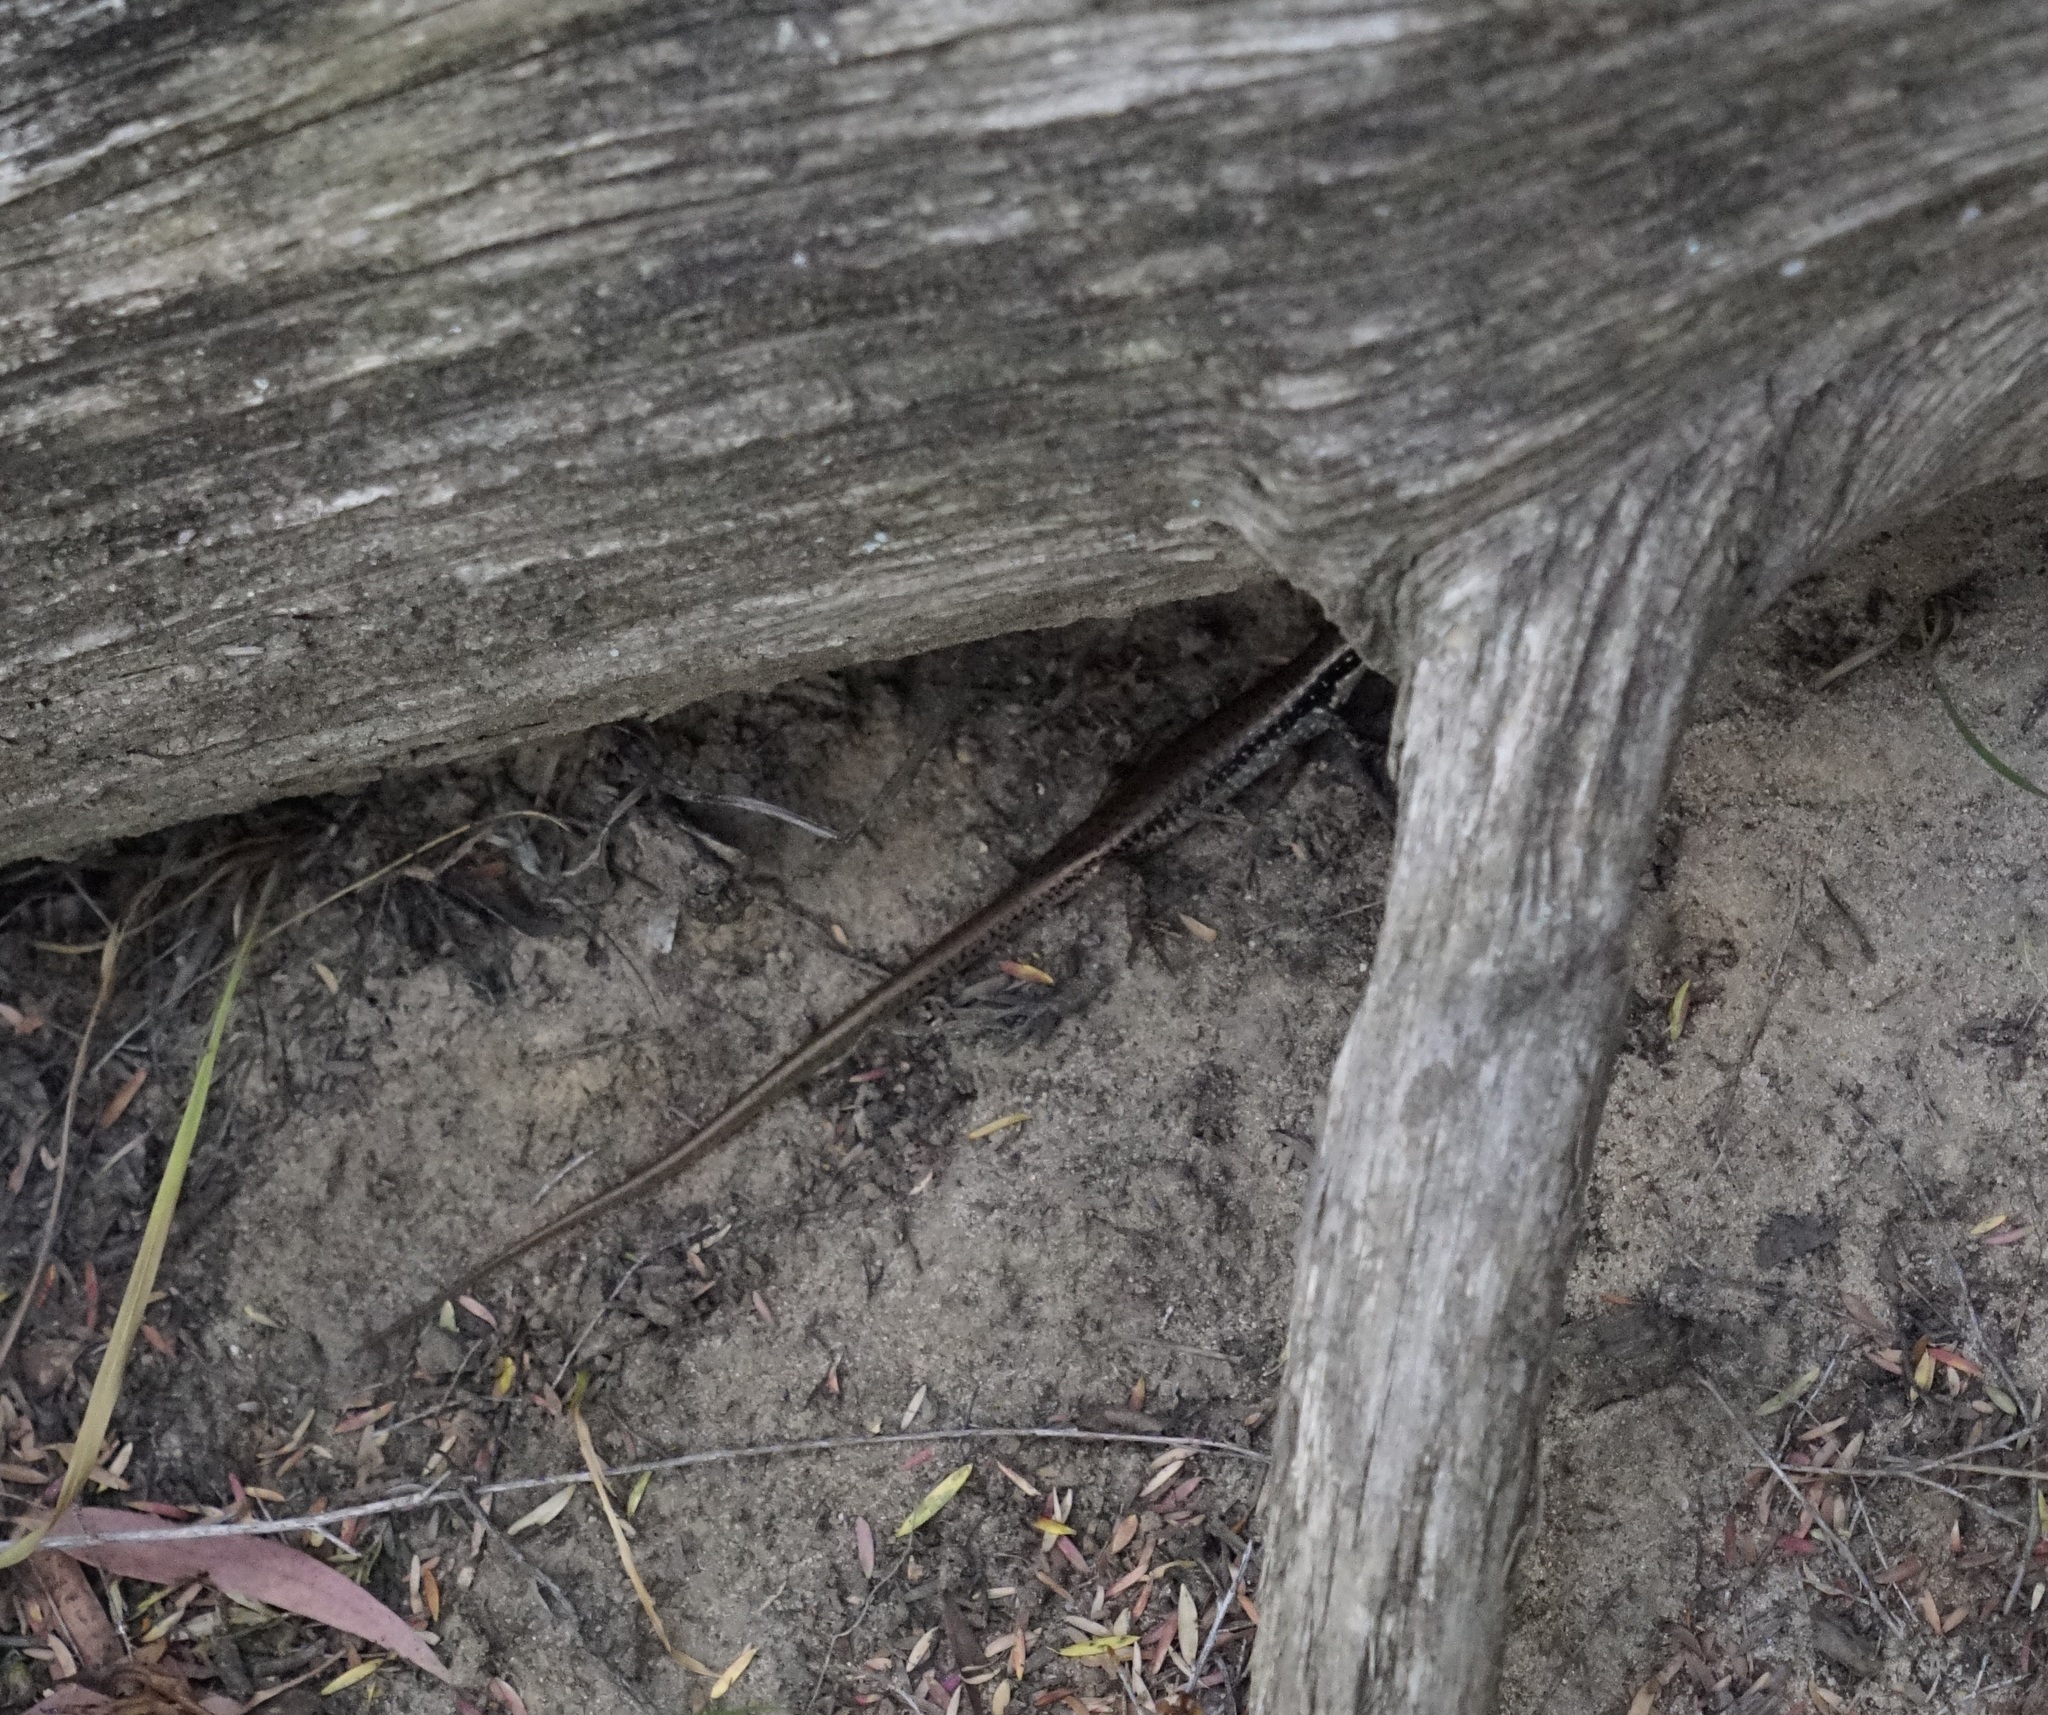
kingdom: Animalia
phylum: Chordata
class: Squamata
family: Scincidae
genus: Eulamprus
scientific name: Eulamprus
